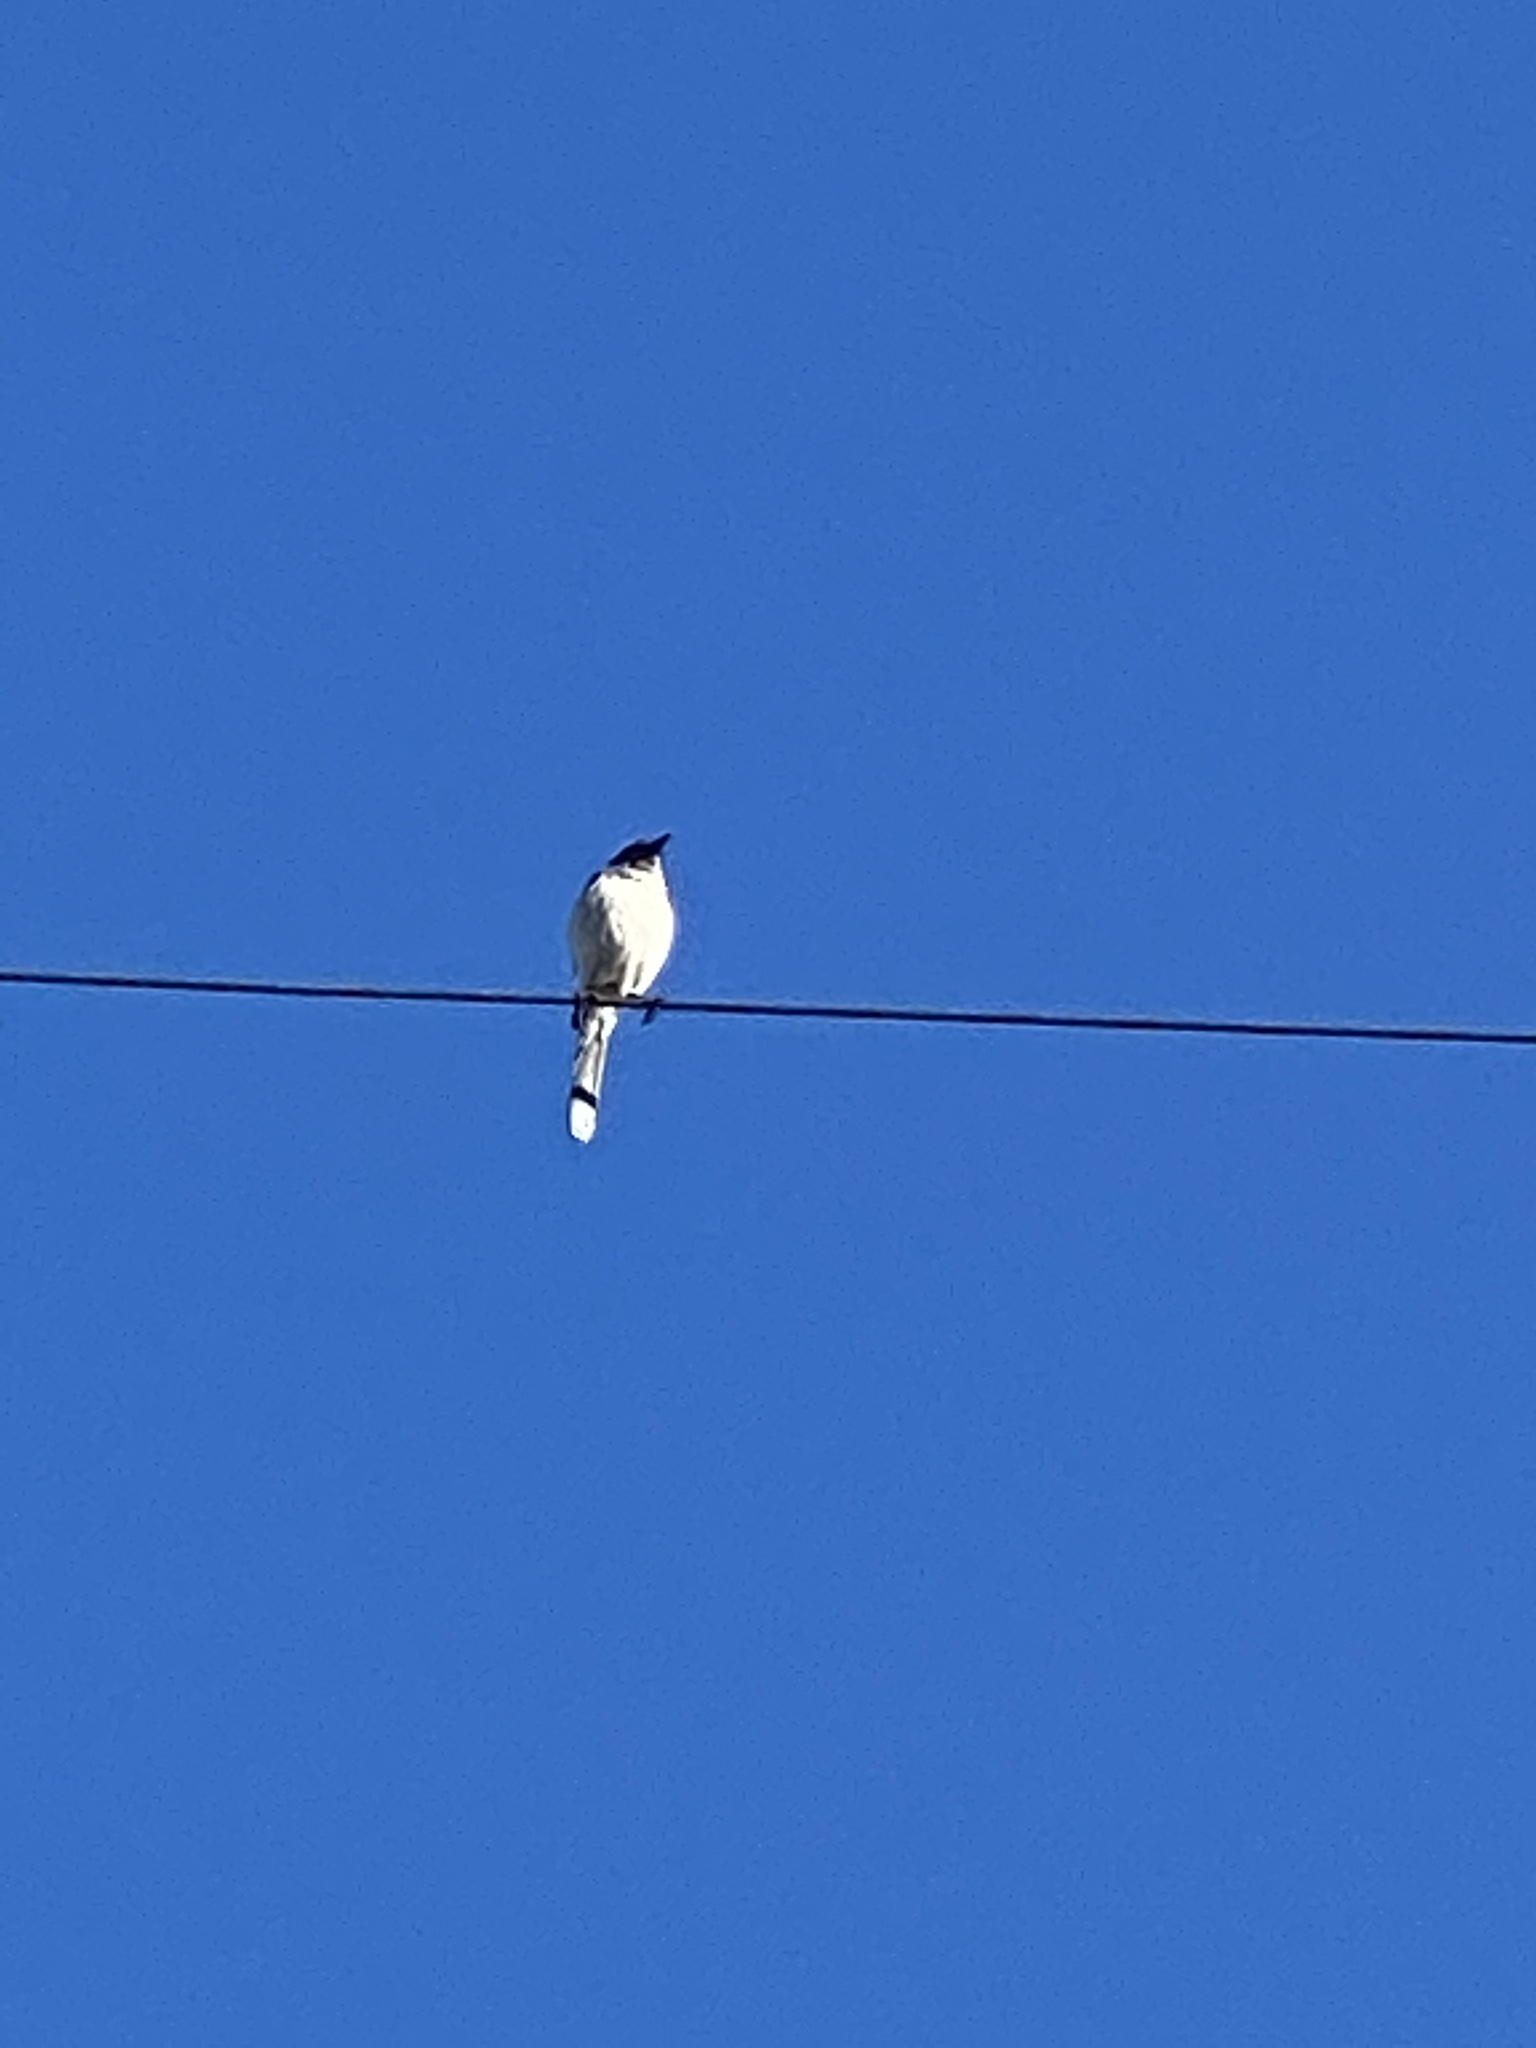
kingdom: Animalia
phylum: Chordata
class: Aves
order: Passeriformes
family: Corvidae
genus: Aphelocoma
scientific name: Aphelocoma californica
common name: California scrub-jay
